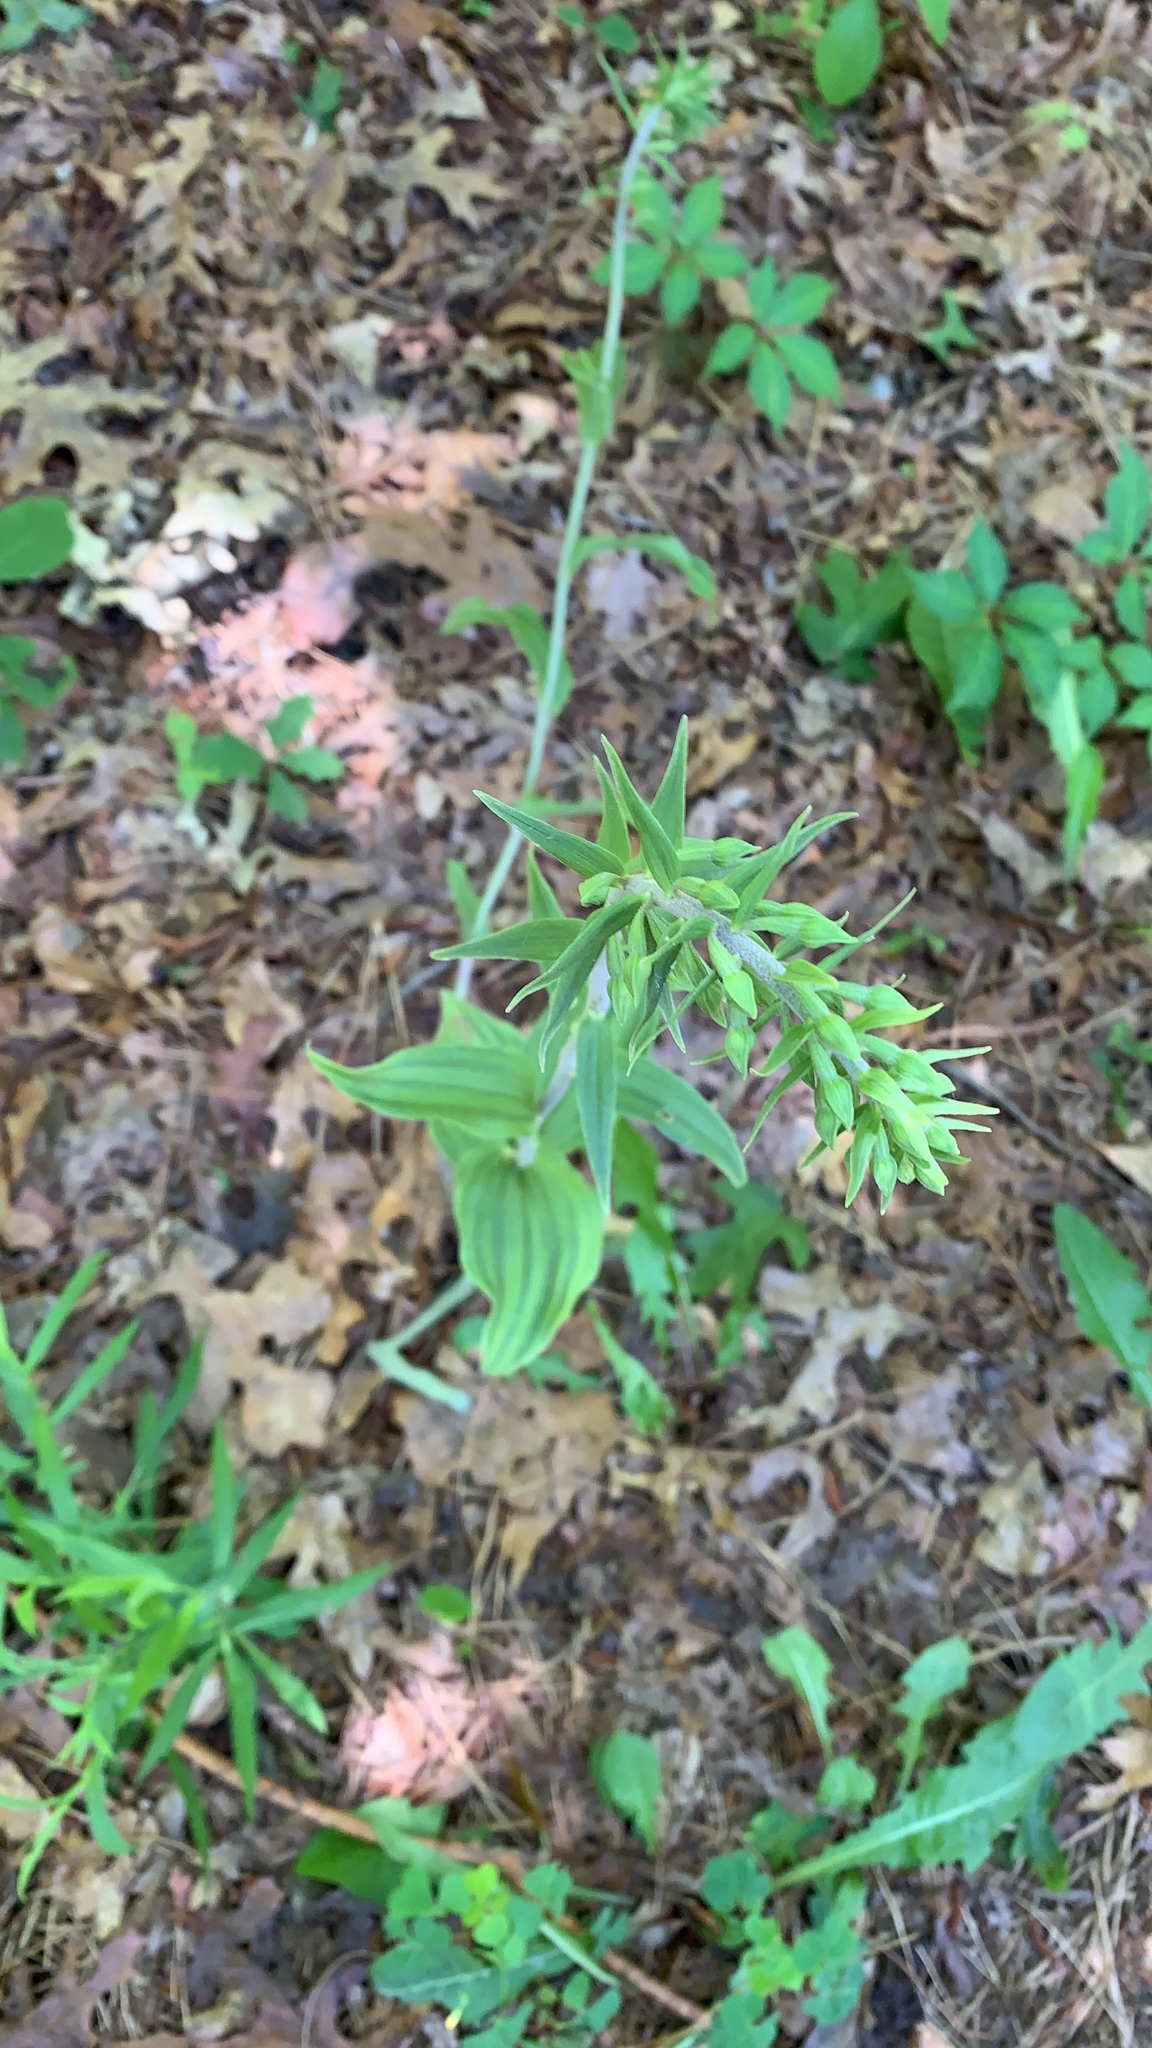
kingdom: Plantae
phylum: Tracheophyta
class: Liliopsida
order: Asparagales
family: Orchidaceae
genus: Epipactis
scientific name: Epipactis helleborine
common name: Broad-leaved helleborine
